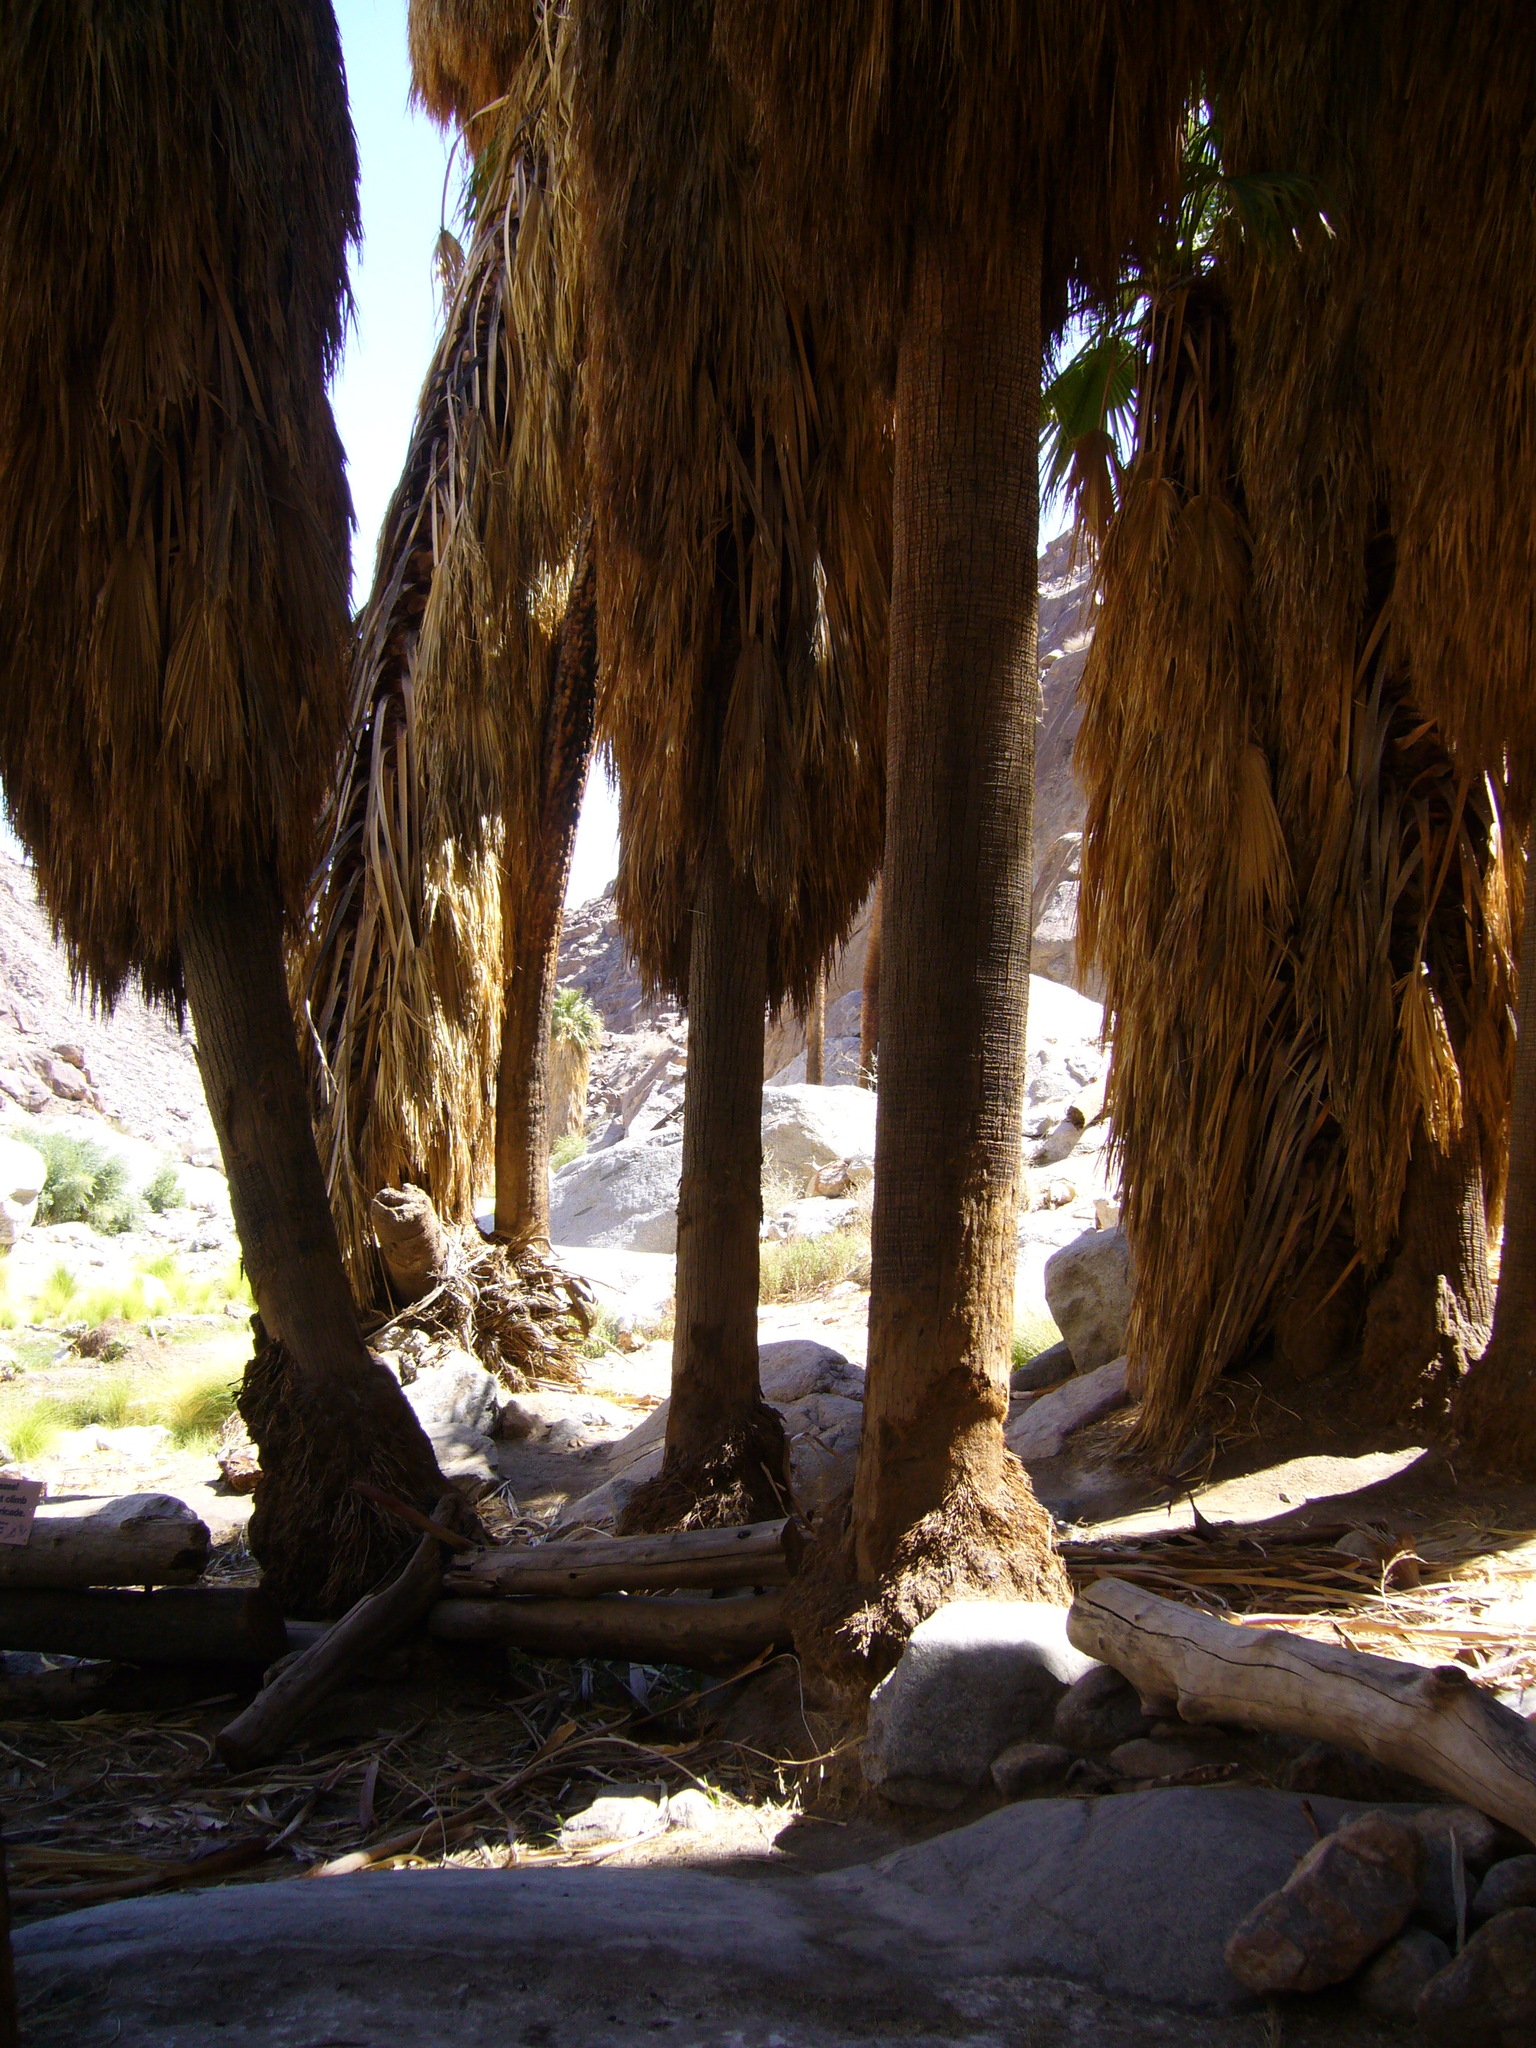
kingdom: Plantae
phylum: Tracheophyta
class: Liliopsida
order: Arecales
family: Arecaceae
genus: Washingtonia
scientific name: Washingtonia filifera
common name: California fan palm
